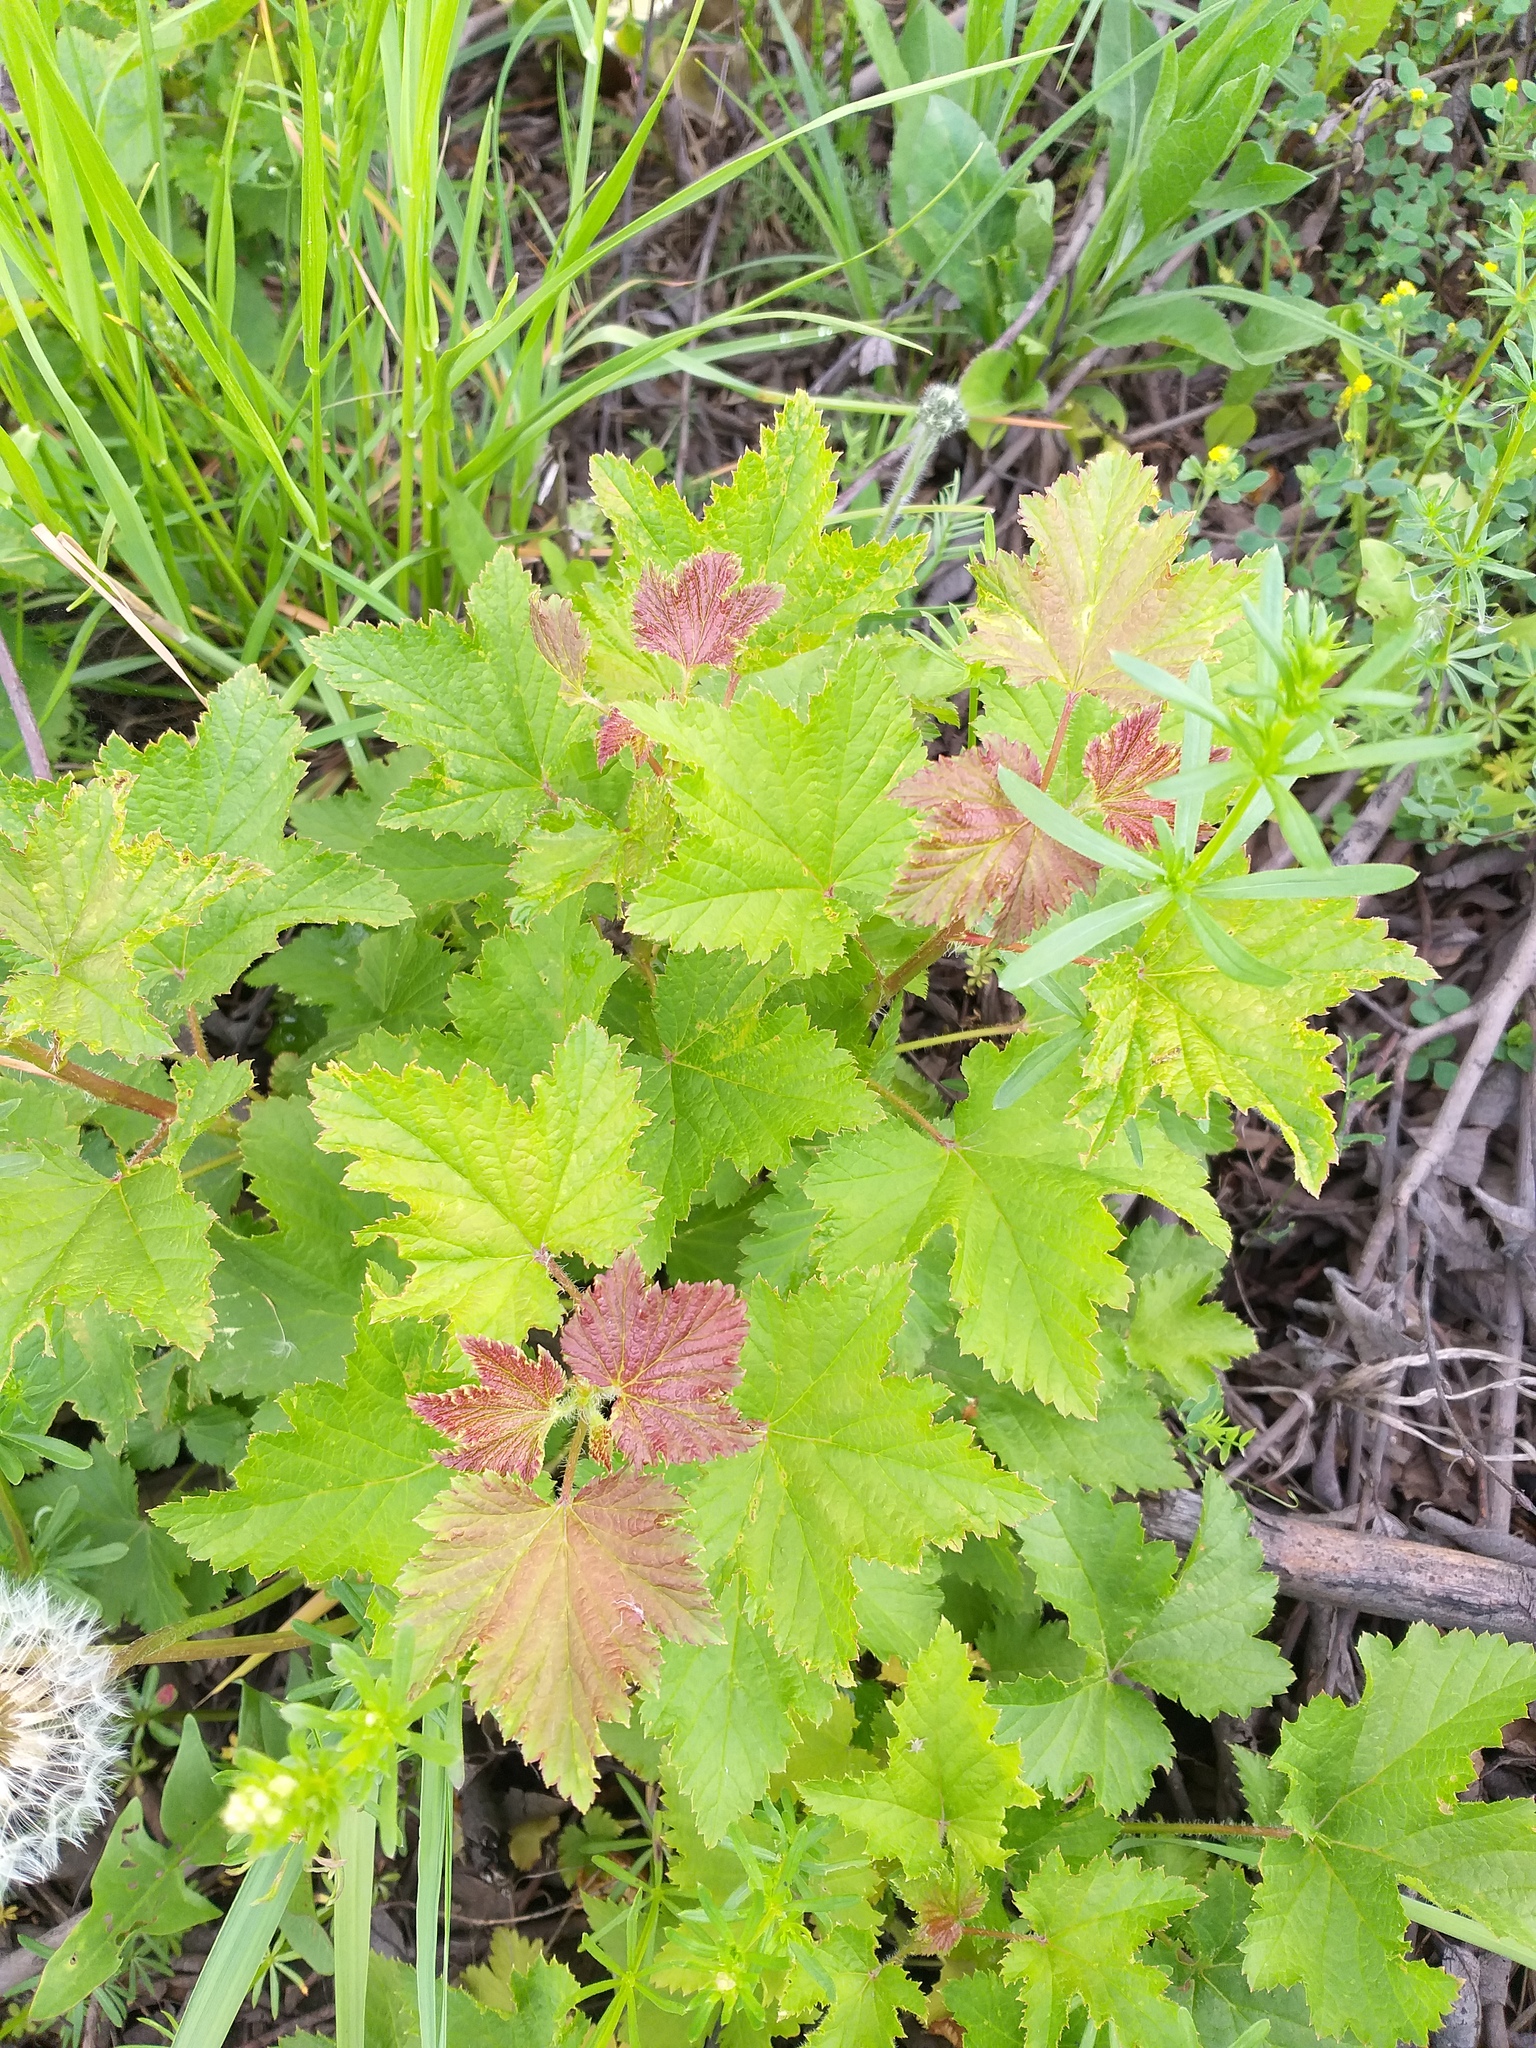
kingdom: Plantae
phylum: Tracheophyta
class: Magnoliopsida
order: Saxifragales
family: Grossulariaceae
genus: Ribes
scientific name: Ribes rubrum
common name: Red currant
